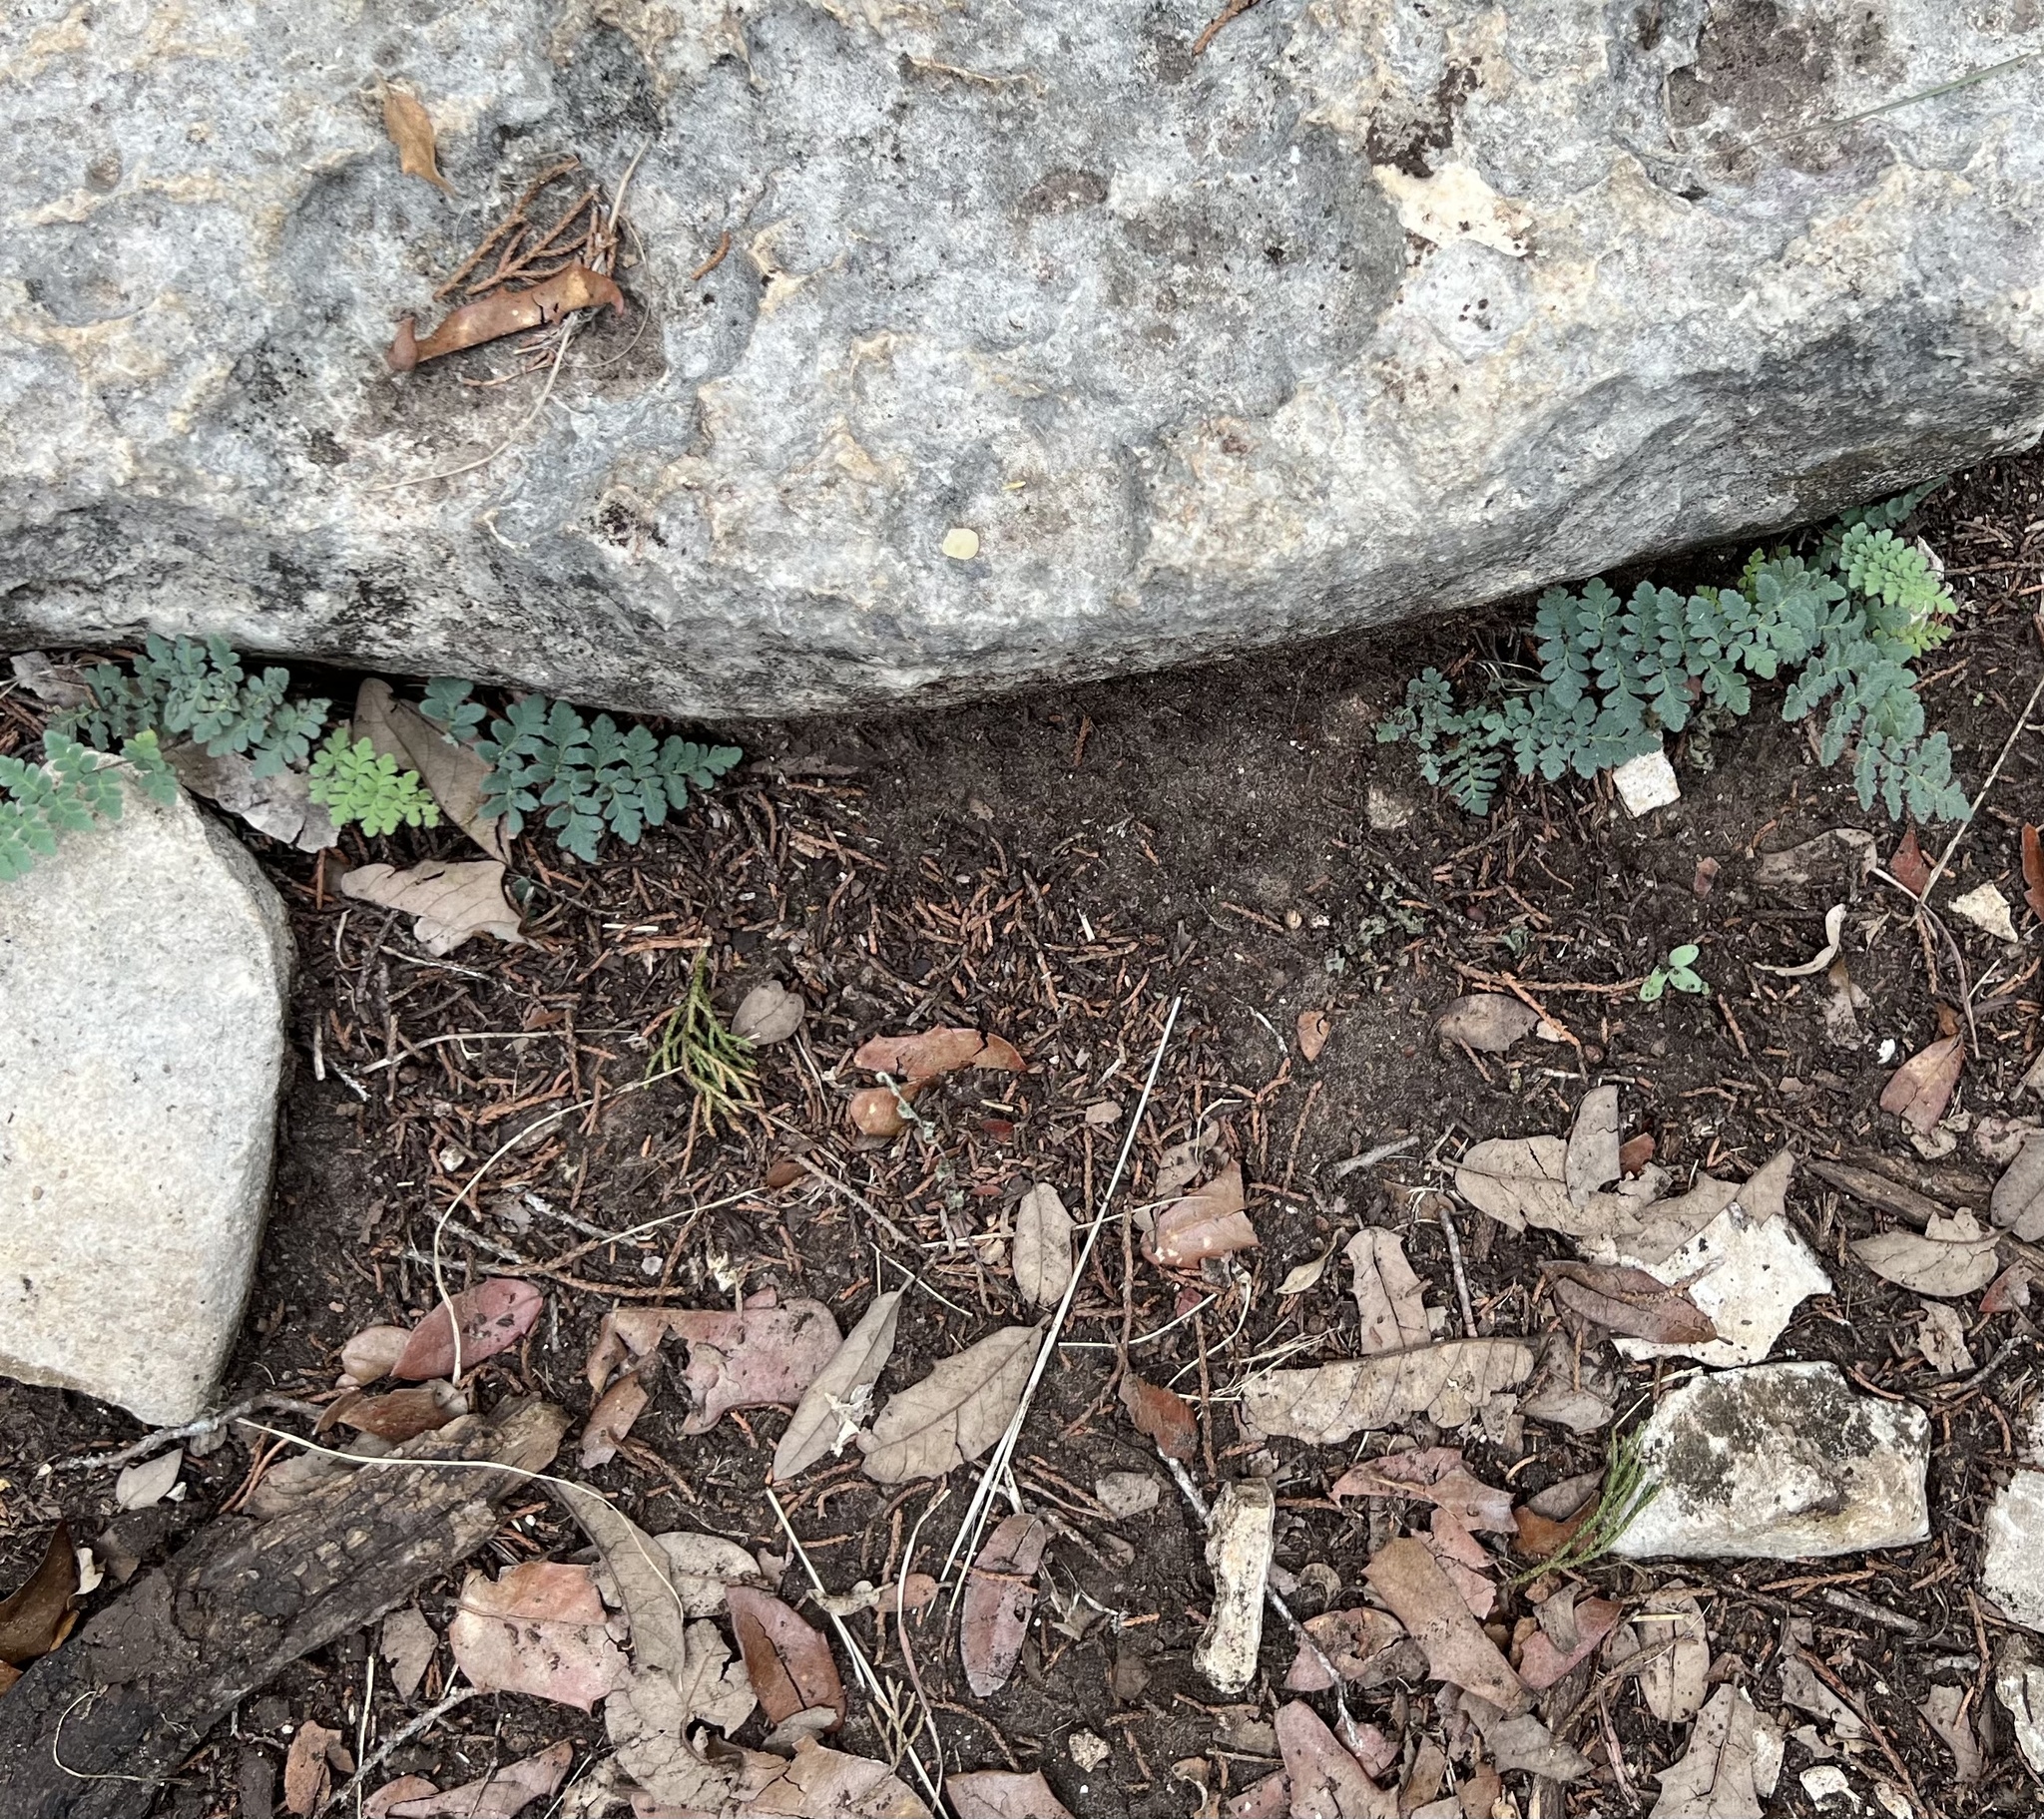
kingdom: Plantae
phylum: Tracheophyta
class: Polypodiopsida
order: Polypodiales
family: Pteridaceae
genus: Myriopteris
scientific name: Myriopteris scabra
